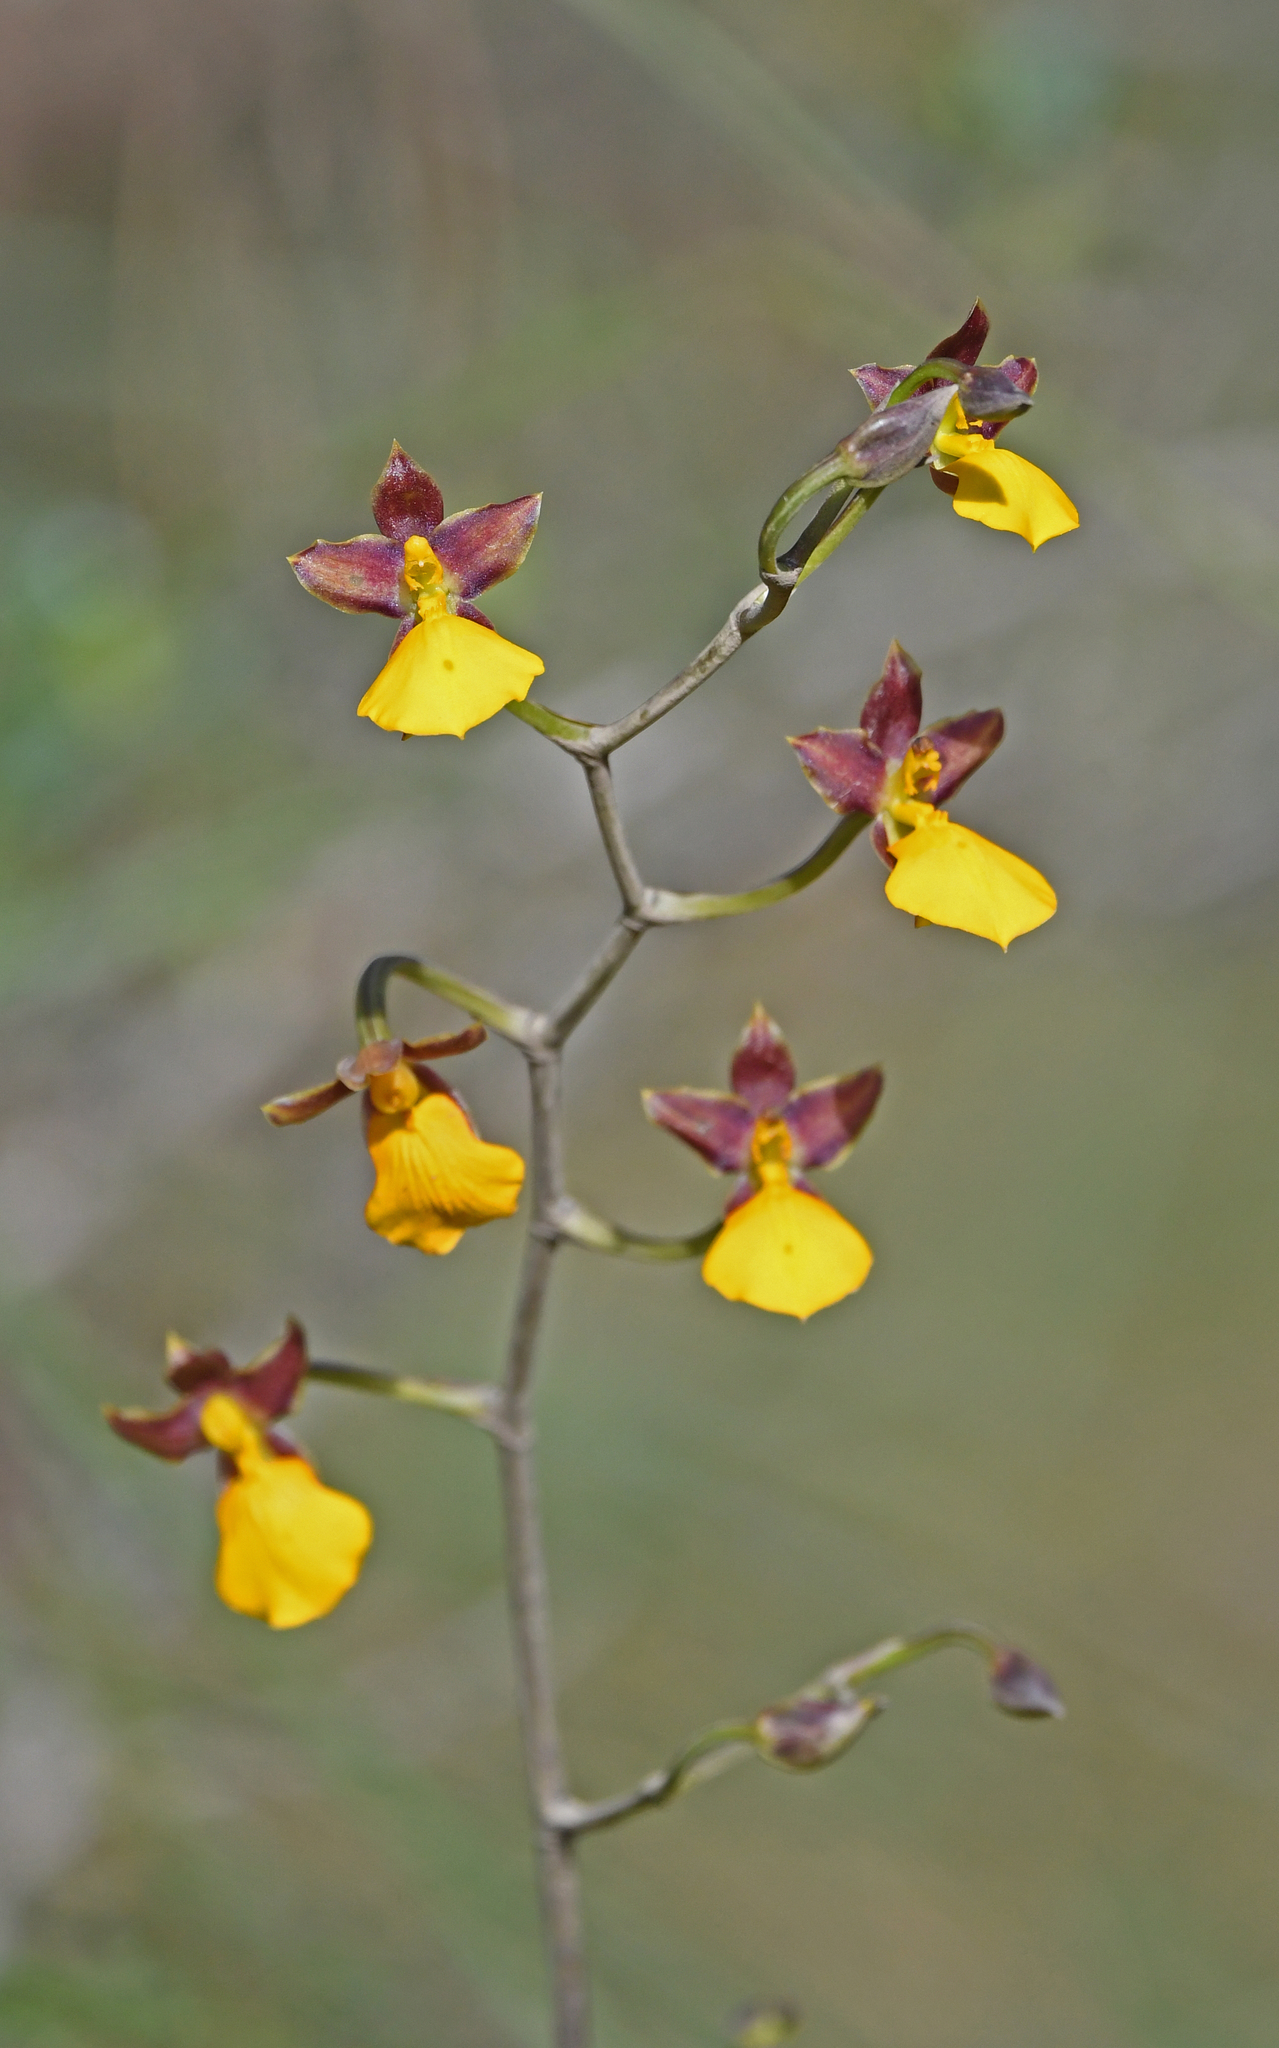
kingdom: Plantae
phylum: Tracheophyta
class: Liliopsida
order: Asparagales
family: Orchidaceae
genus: Cyrtochilum
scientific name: Cyrtochilum aureum
